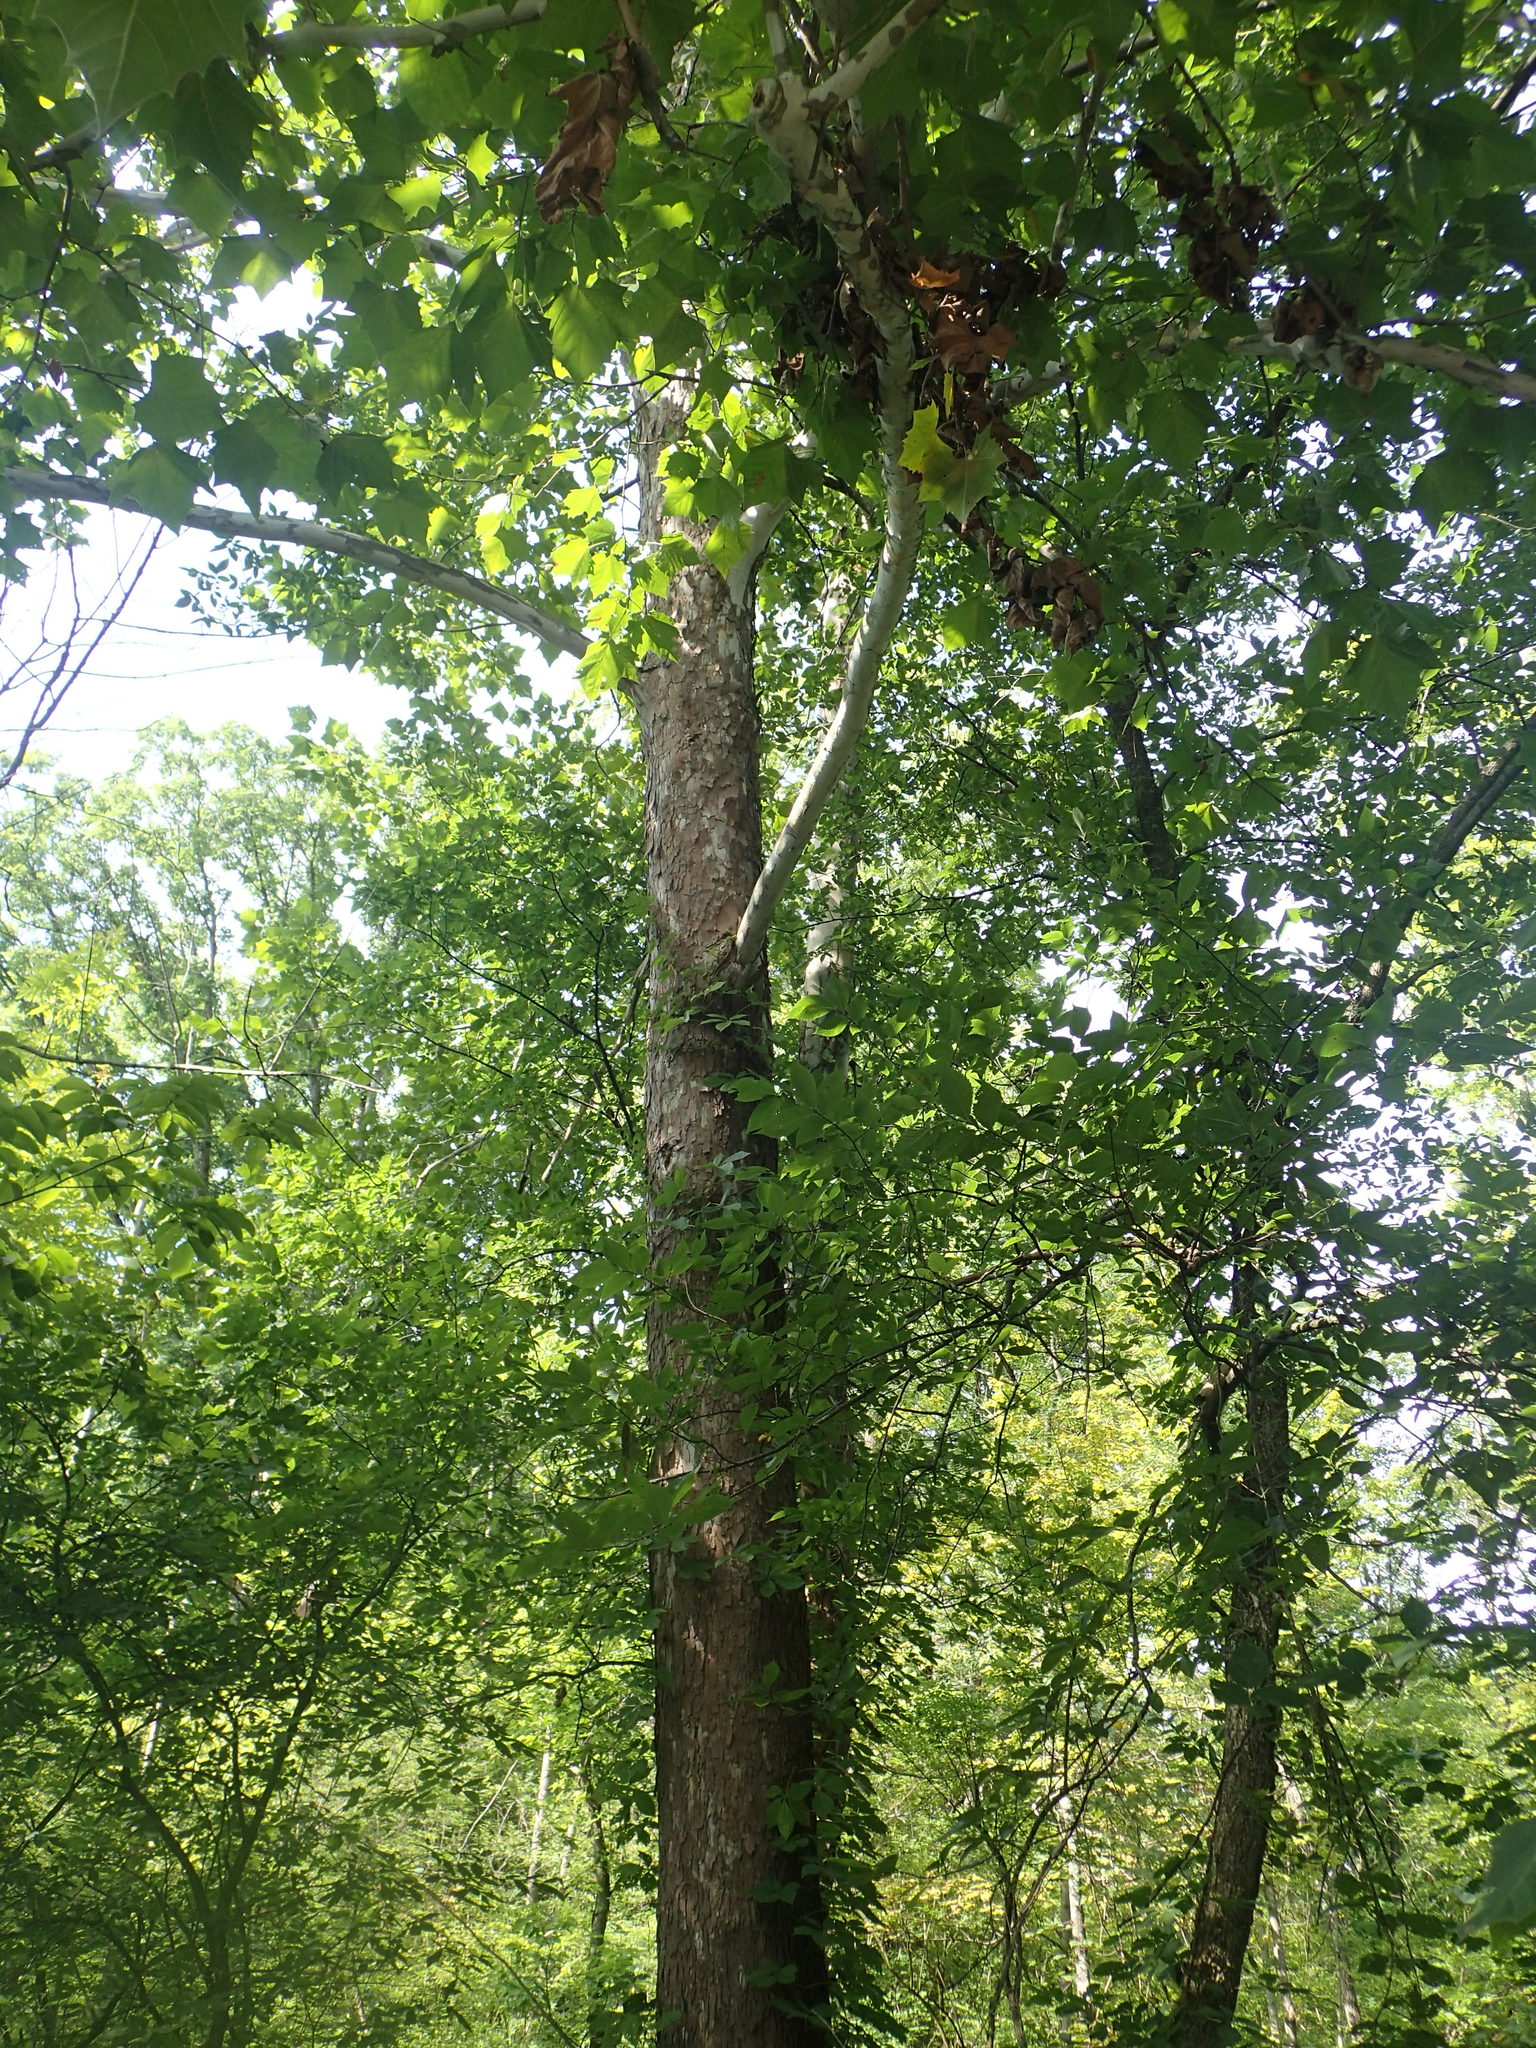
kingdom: Plantae
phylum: Tracheophyta
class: Magnoliopsida
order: Proteales
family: Platanaceae
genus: Platanus
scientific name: Platanus occidentalis
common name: American sycamore
